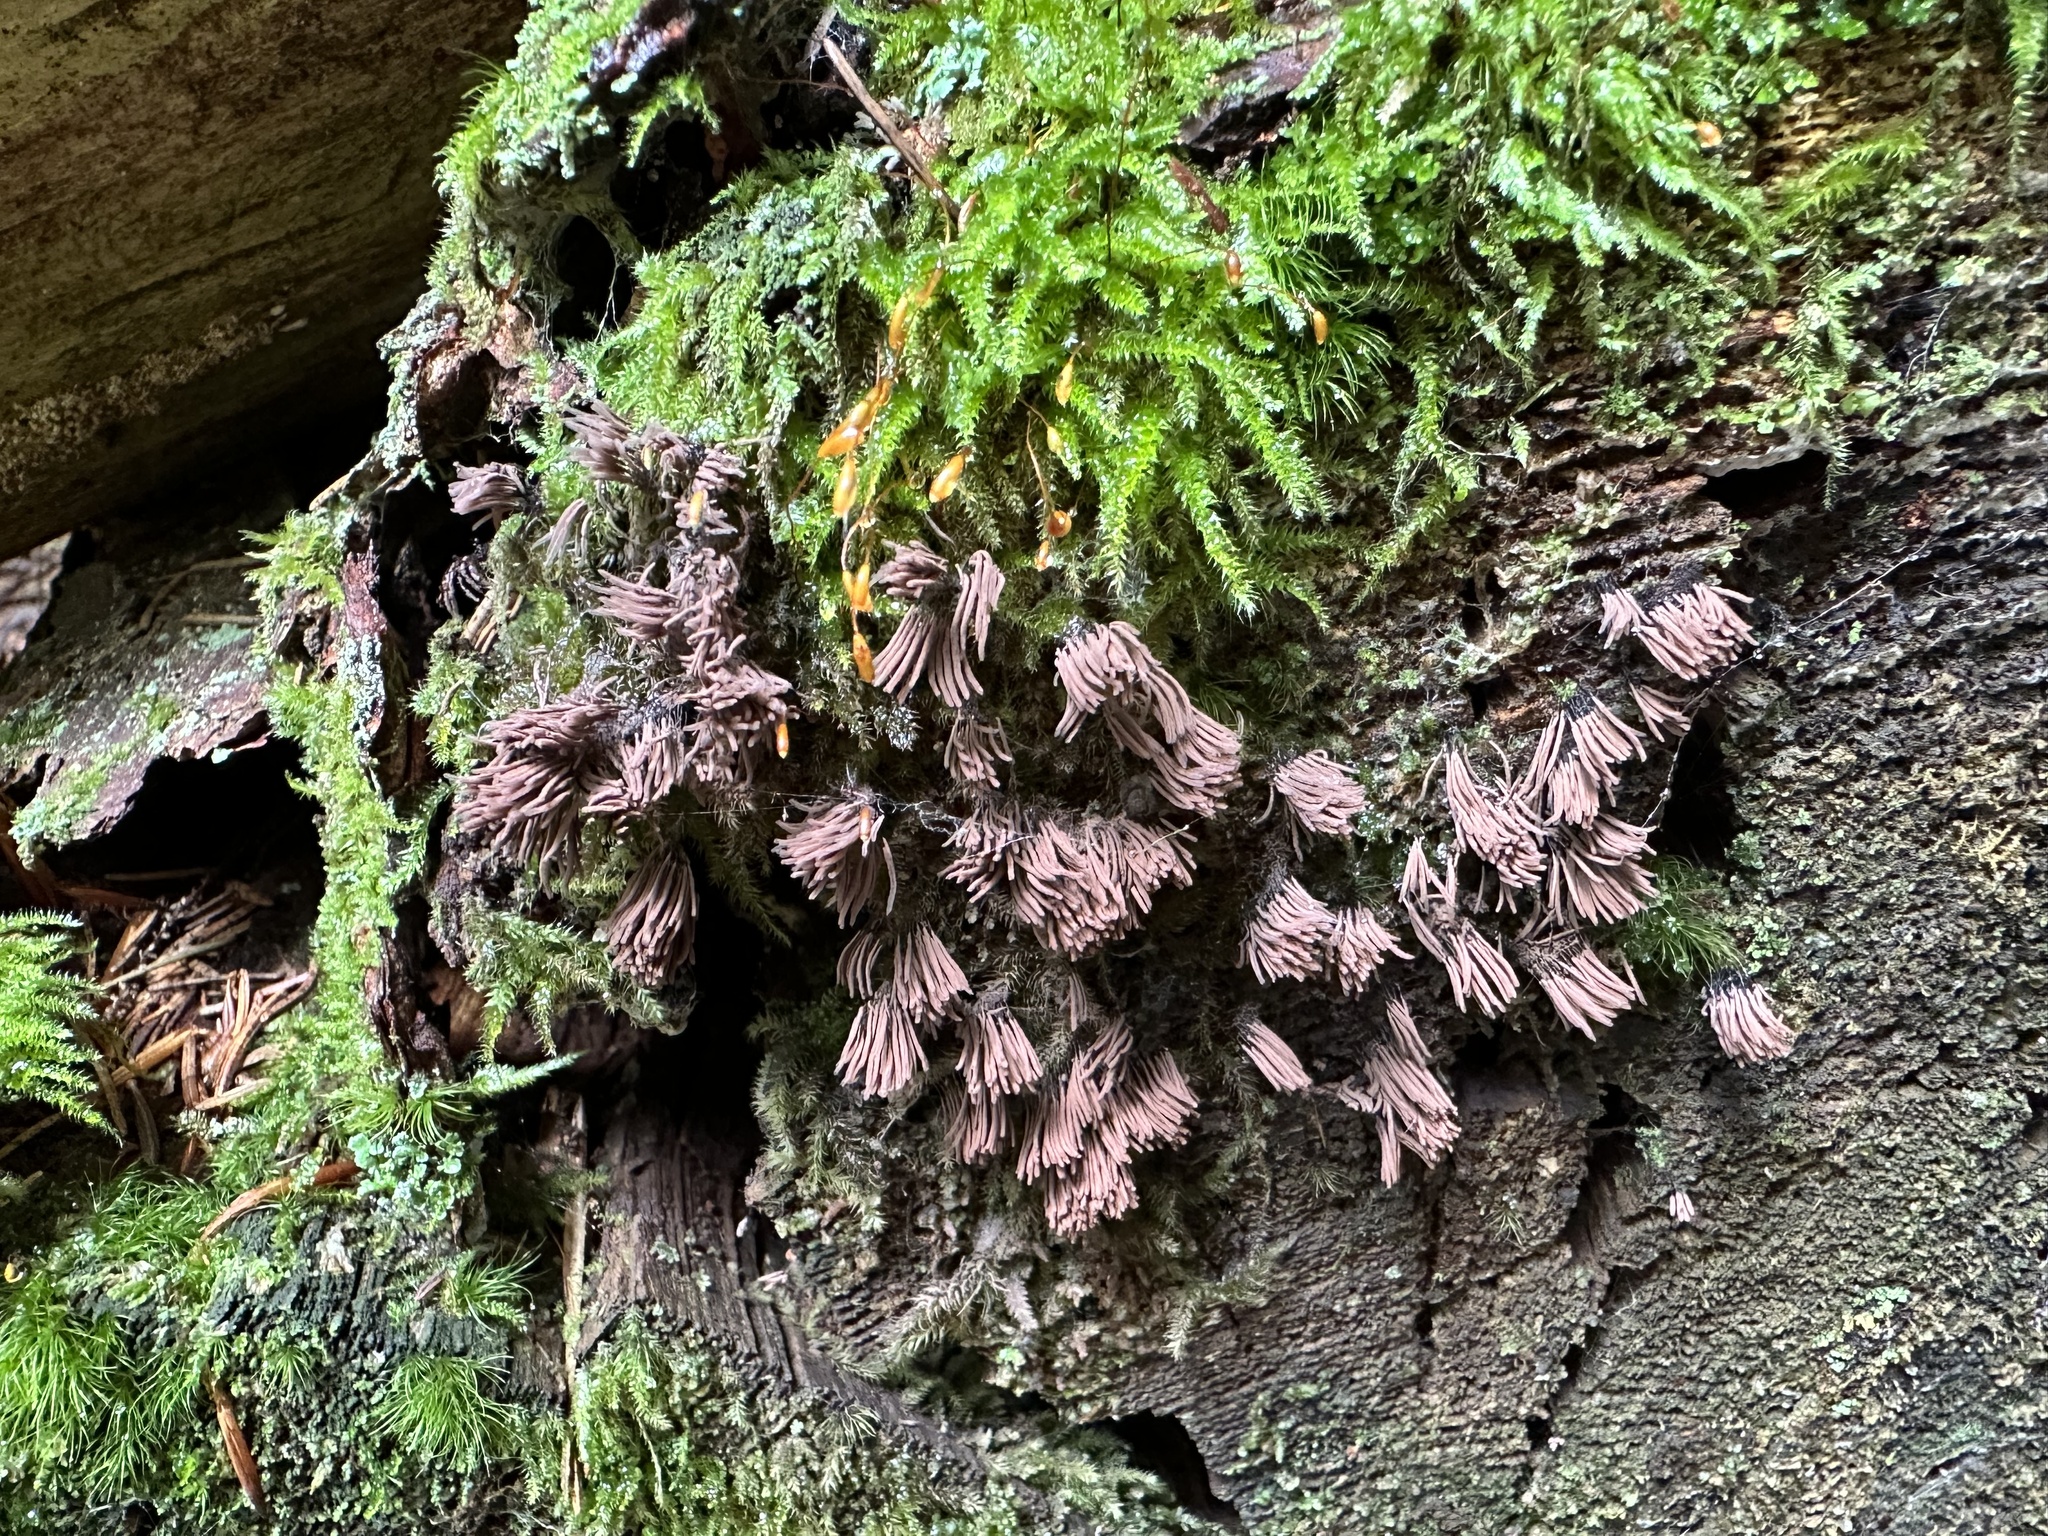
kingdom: Protozoa
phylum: Mycetozoa
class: Myxomycetes
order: Stemonitidales
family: Stemonitidaceae
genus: Stemonitis
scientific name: Stemonitis axifera
